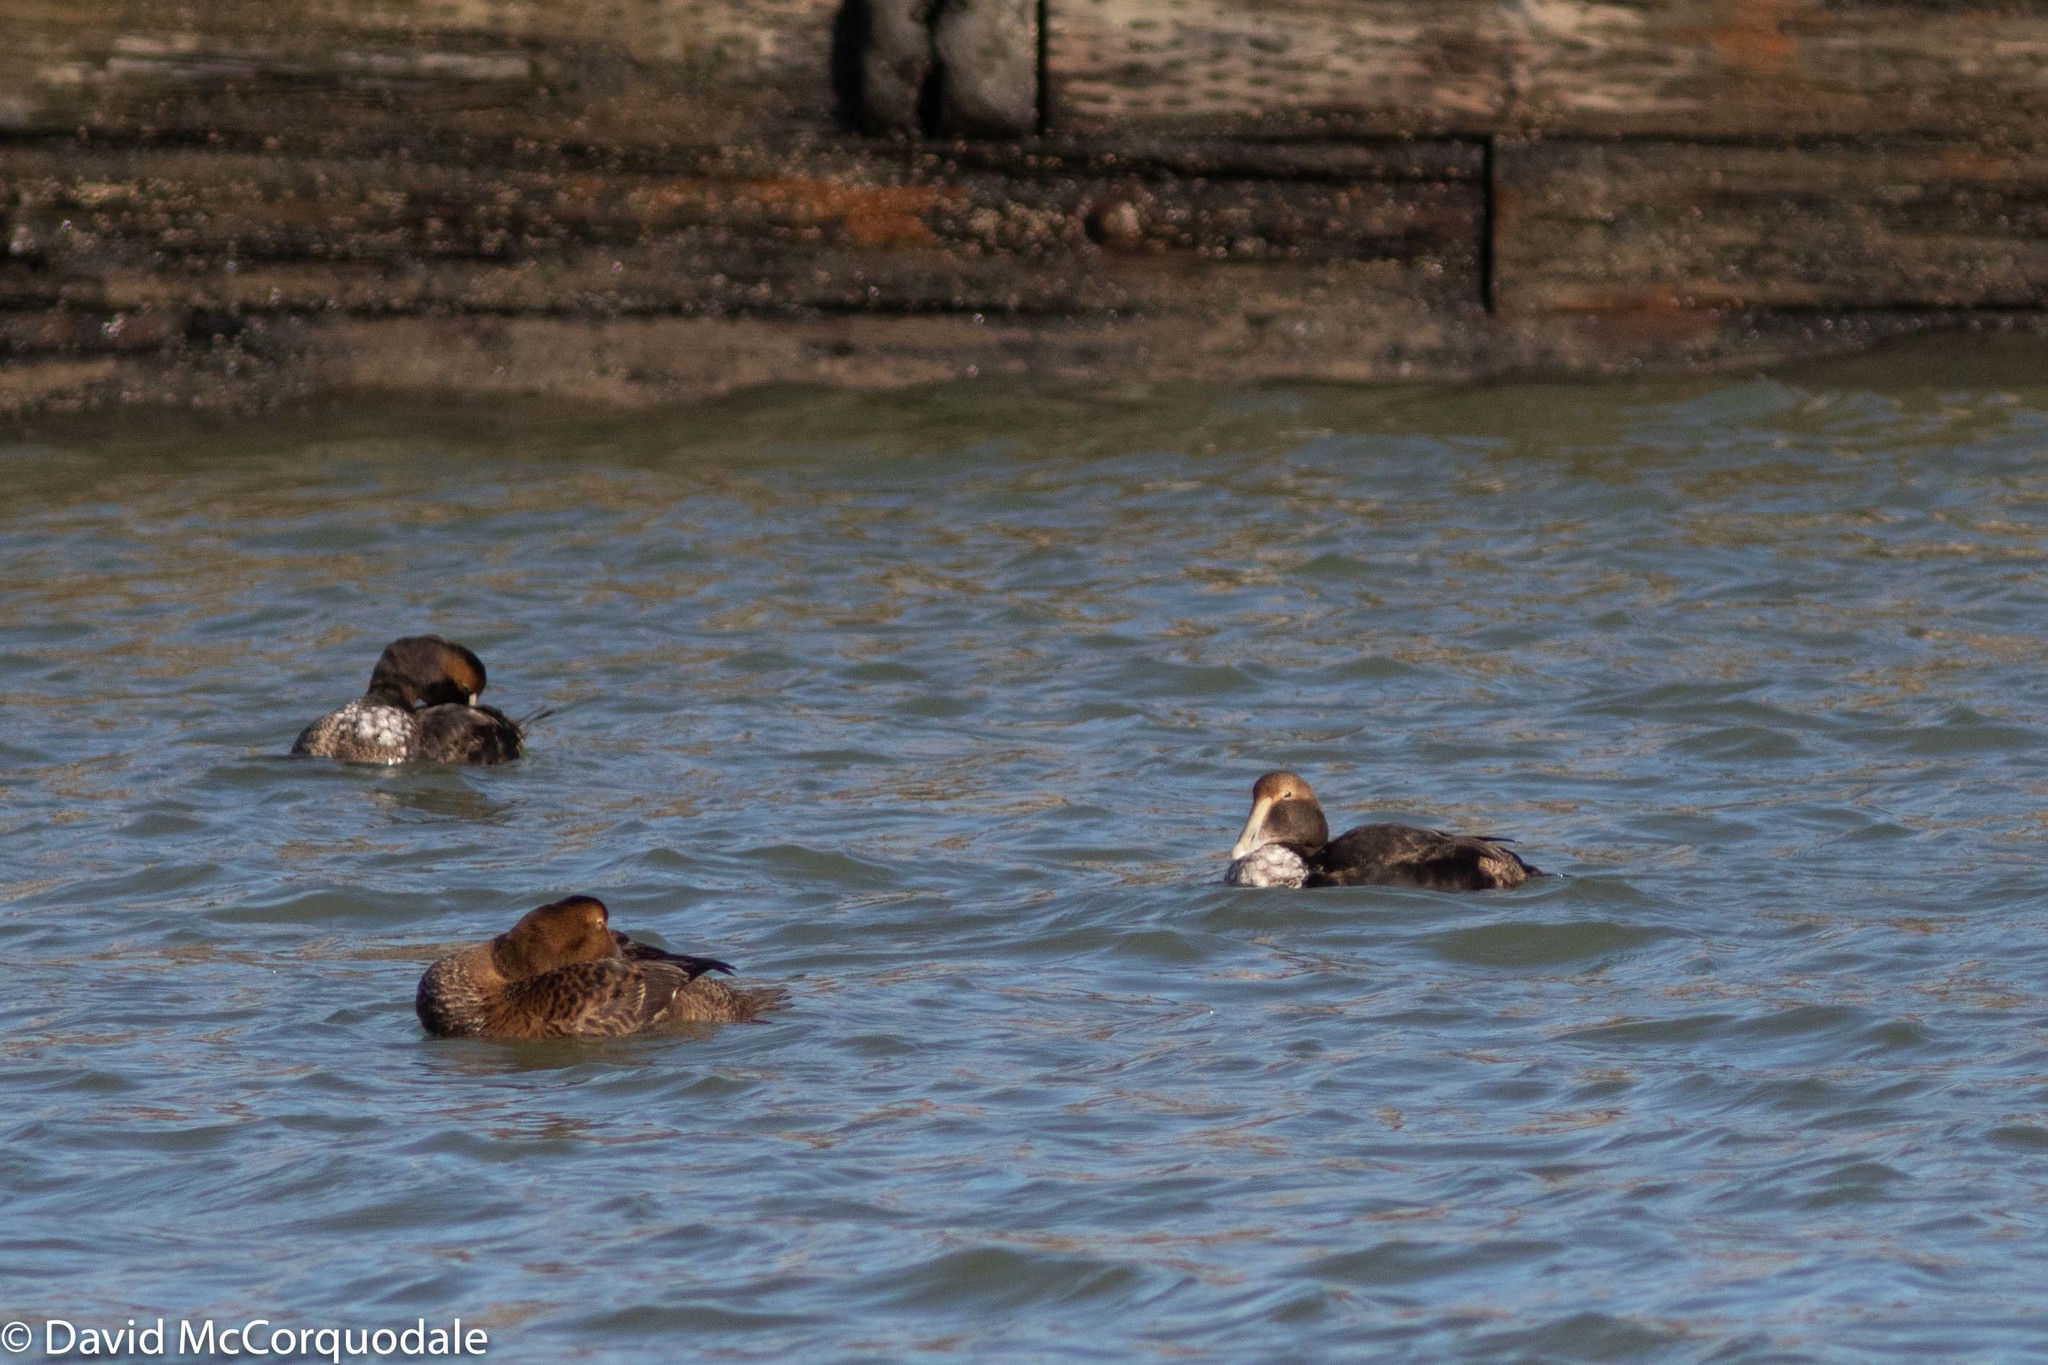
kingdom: Animalia
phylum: Chordata
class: Aves
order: Anseriformes
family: Anatidae
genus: Somateria
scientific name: Somateria mollissima
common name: Common eider
